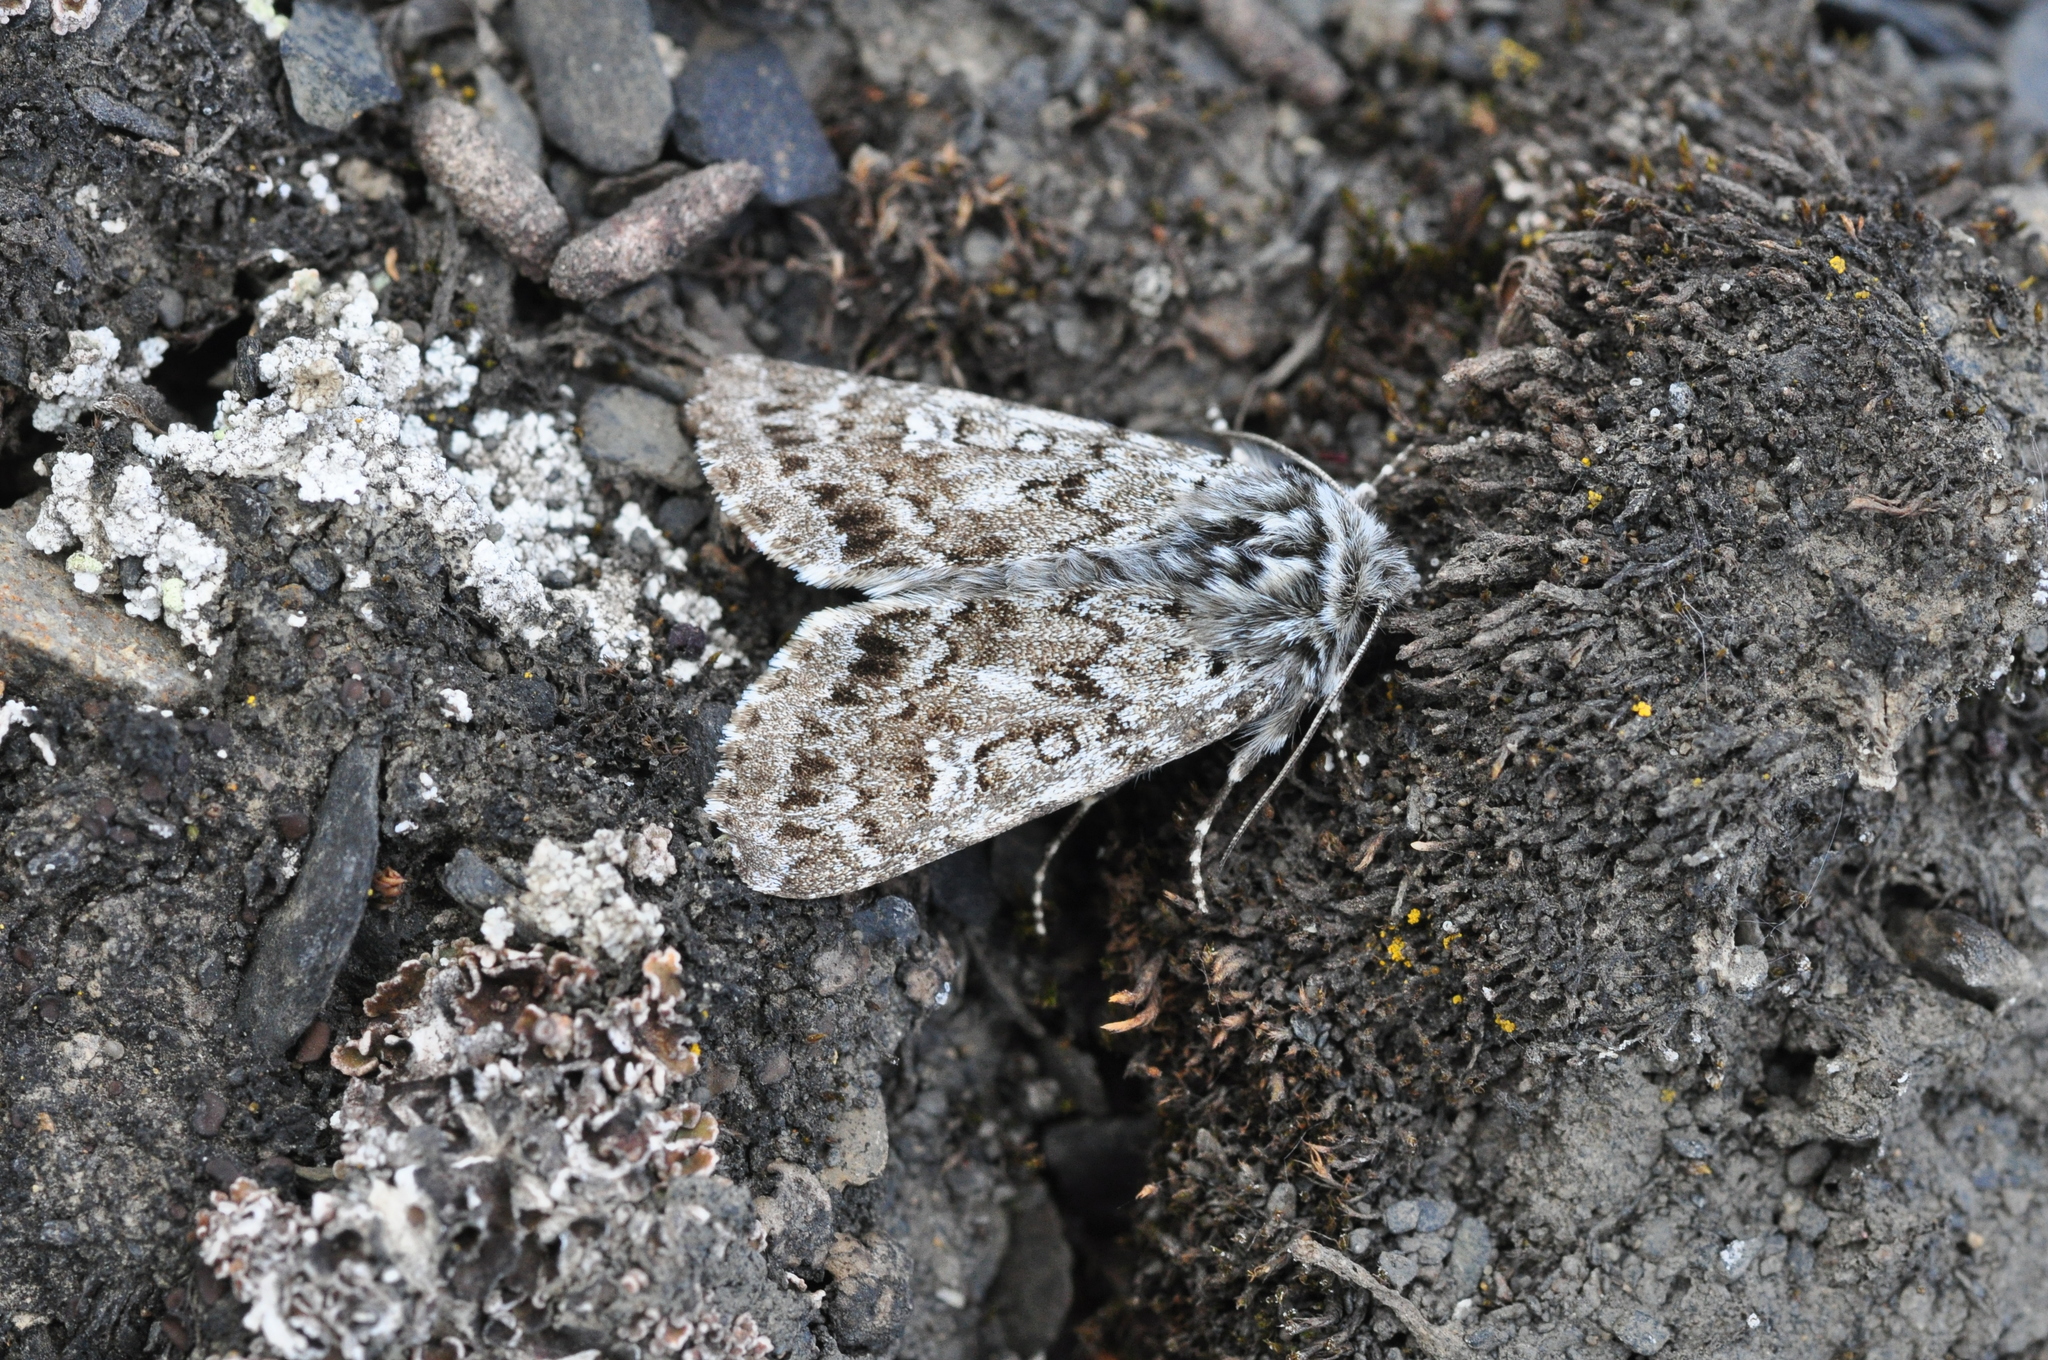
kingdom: Animalia
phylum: Arthropoda
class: Insecta
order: Lepidoptera
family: Noctuidae
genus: Polia
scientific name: Polia richardsoni
